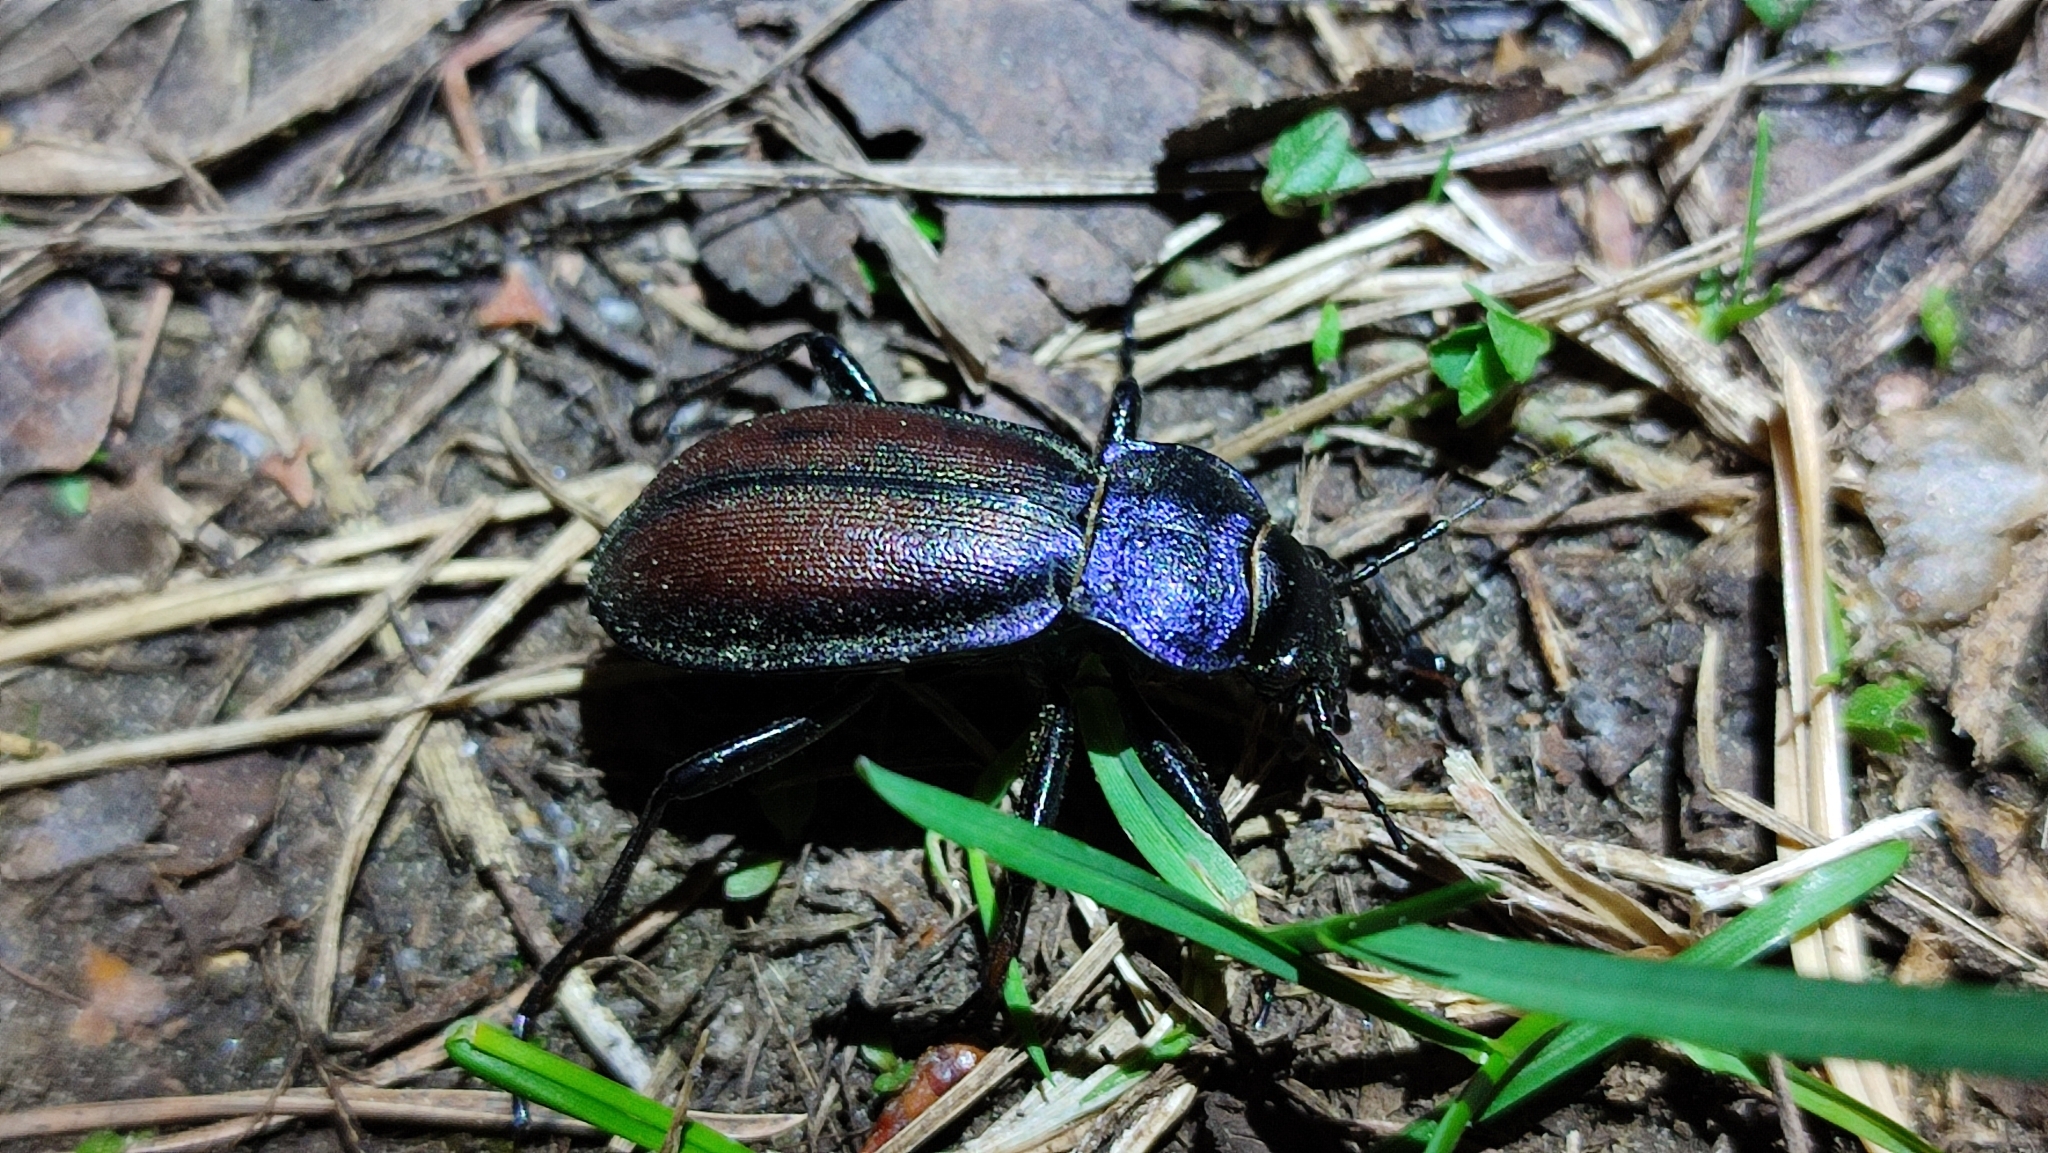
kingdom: Animalia
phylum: Arthropoda
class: Insecta
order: Coleoptera
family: Carabidae
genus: Carabus
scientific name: Carabus schoenherri
